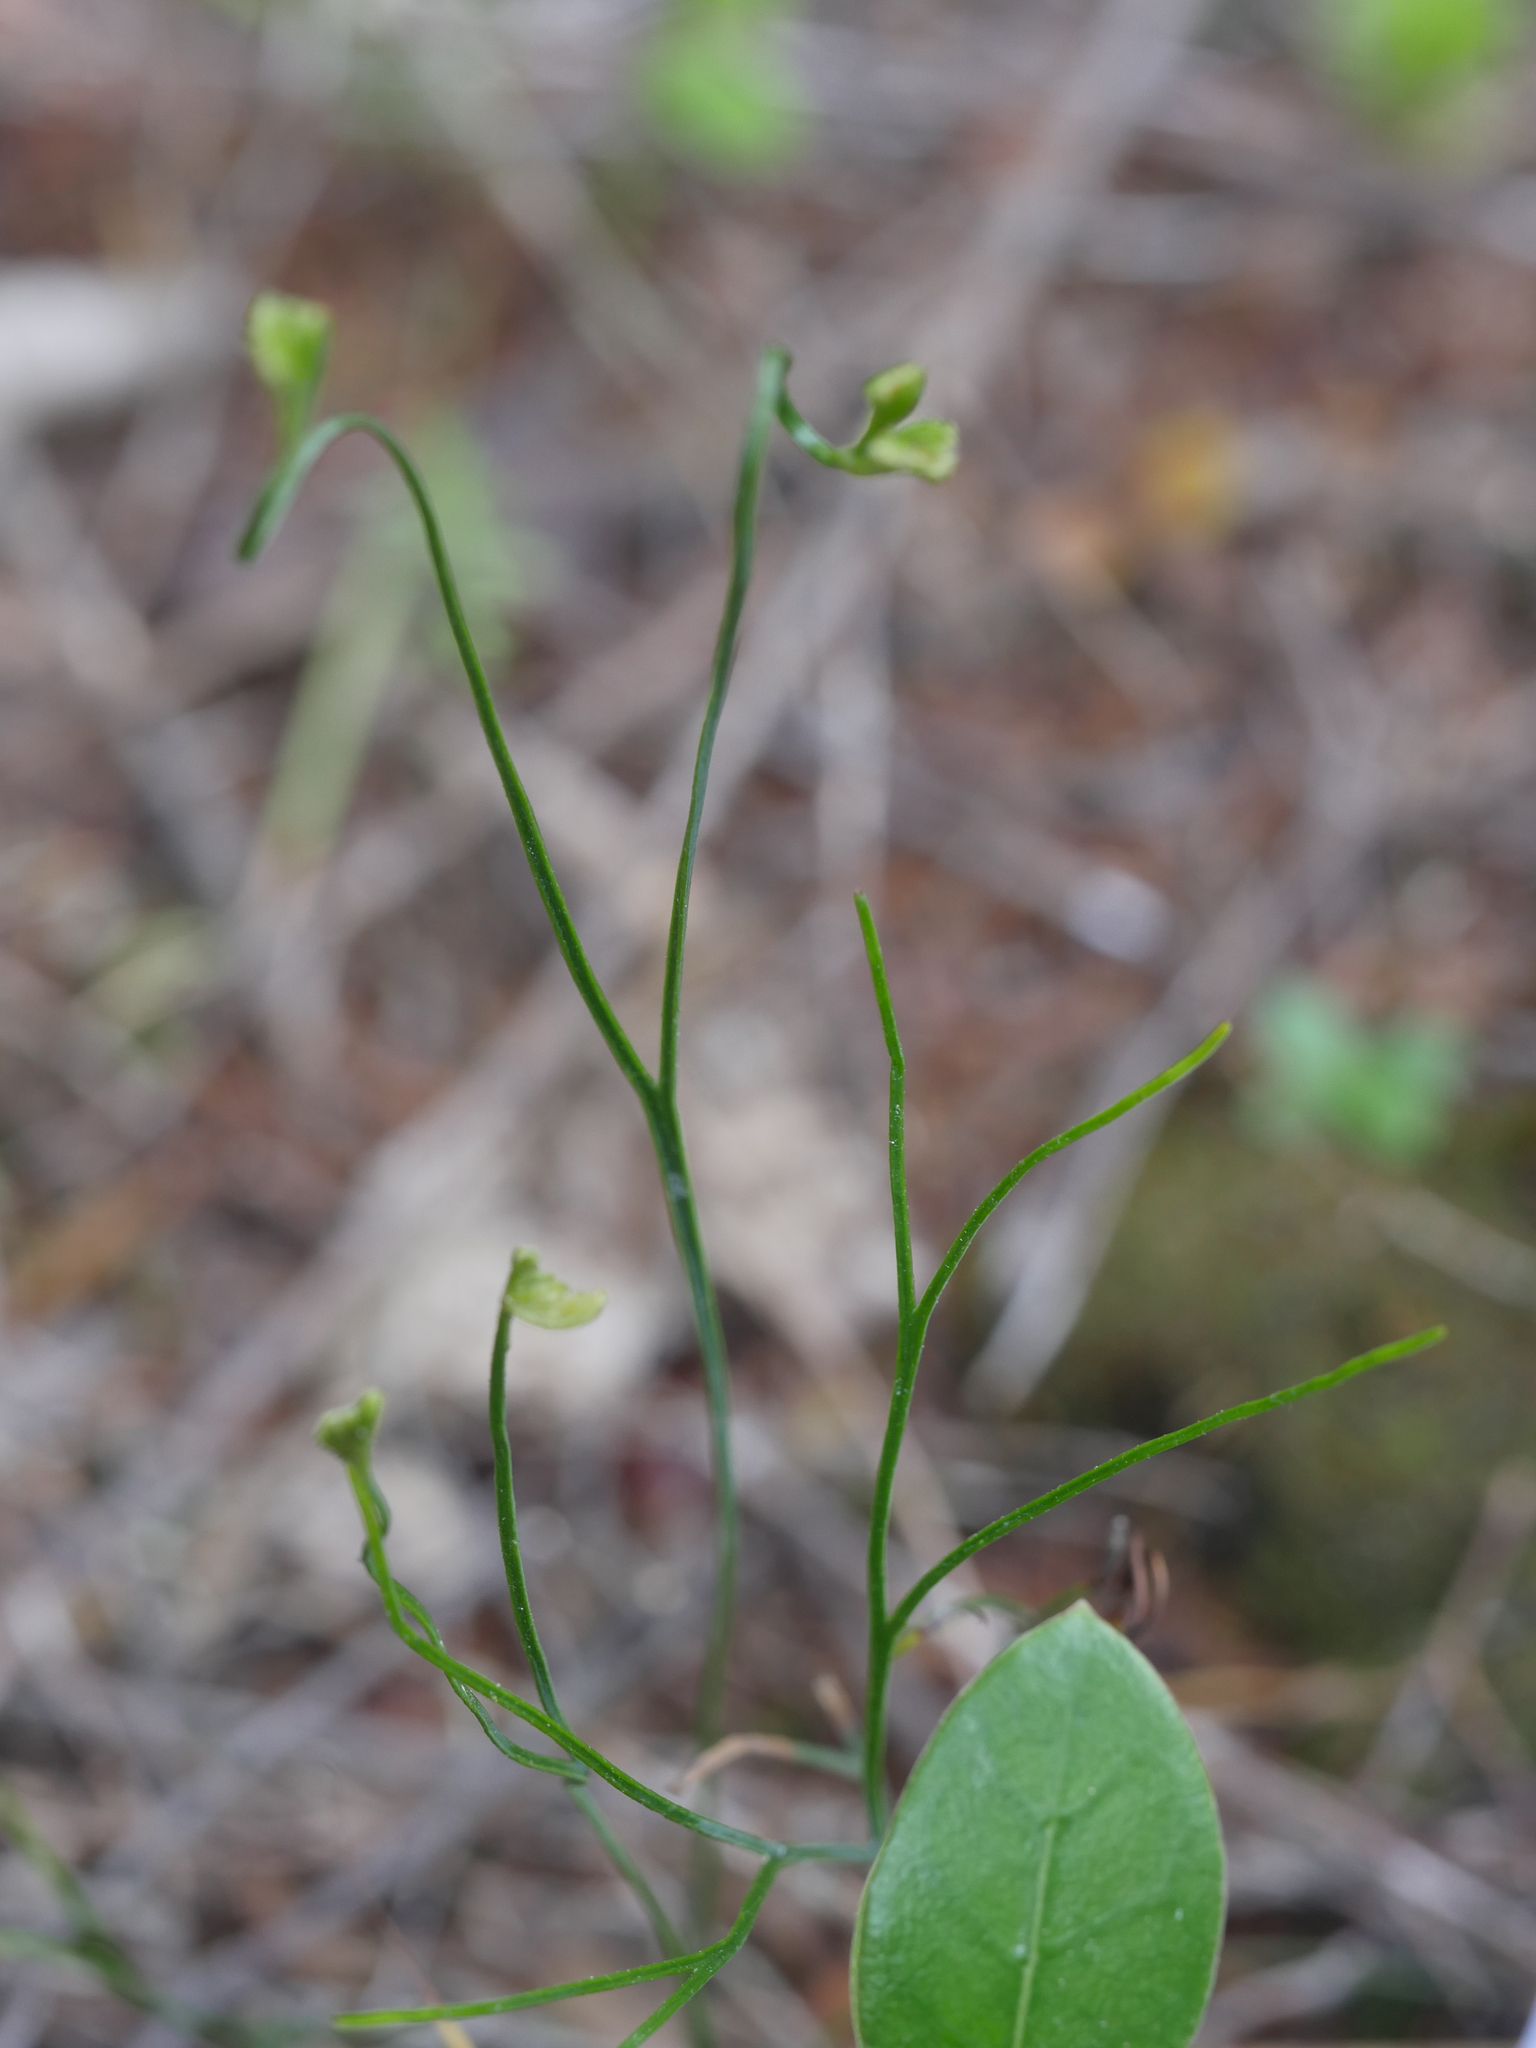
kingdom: Plantae
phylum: Tracheophyta
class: Polypodiopsida
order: Schizaeales
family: Schizaeaceae
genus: Schizaea
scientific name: Schizaea bifida
